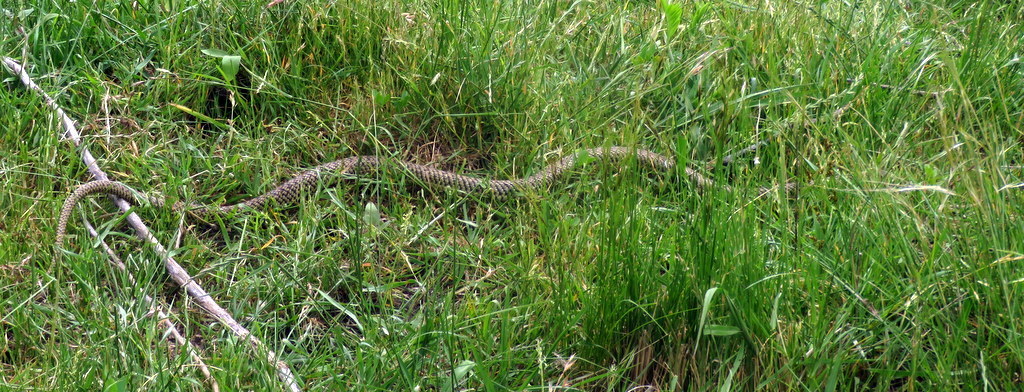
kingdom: Animalia
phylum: Chordata
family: Dipsadidae
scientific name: Dipsadidae
